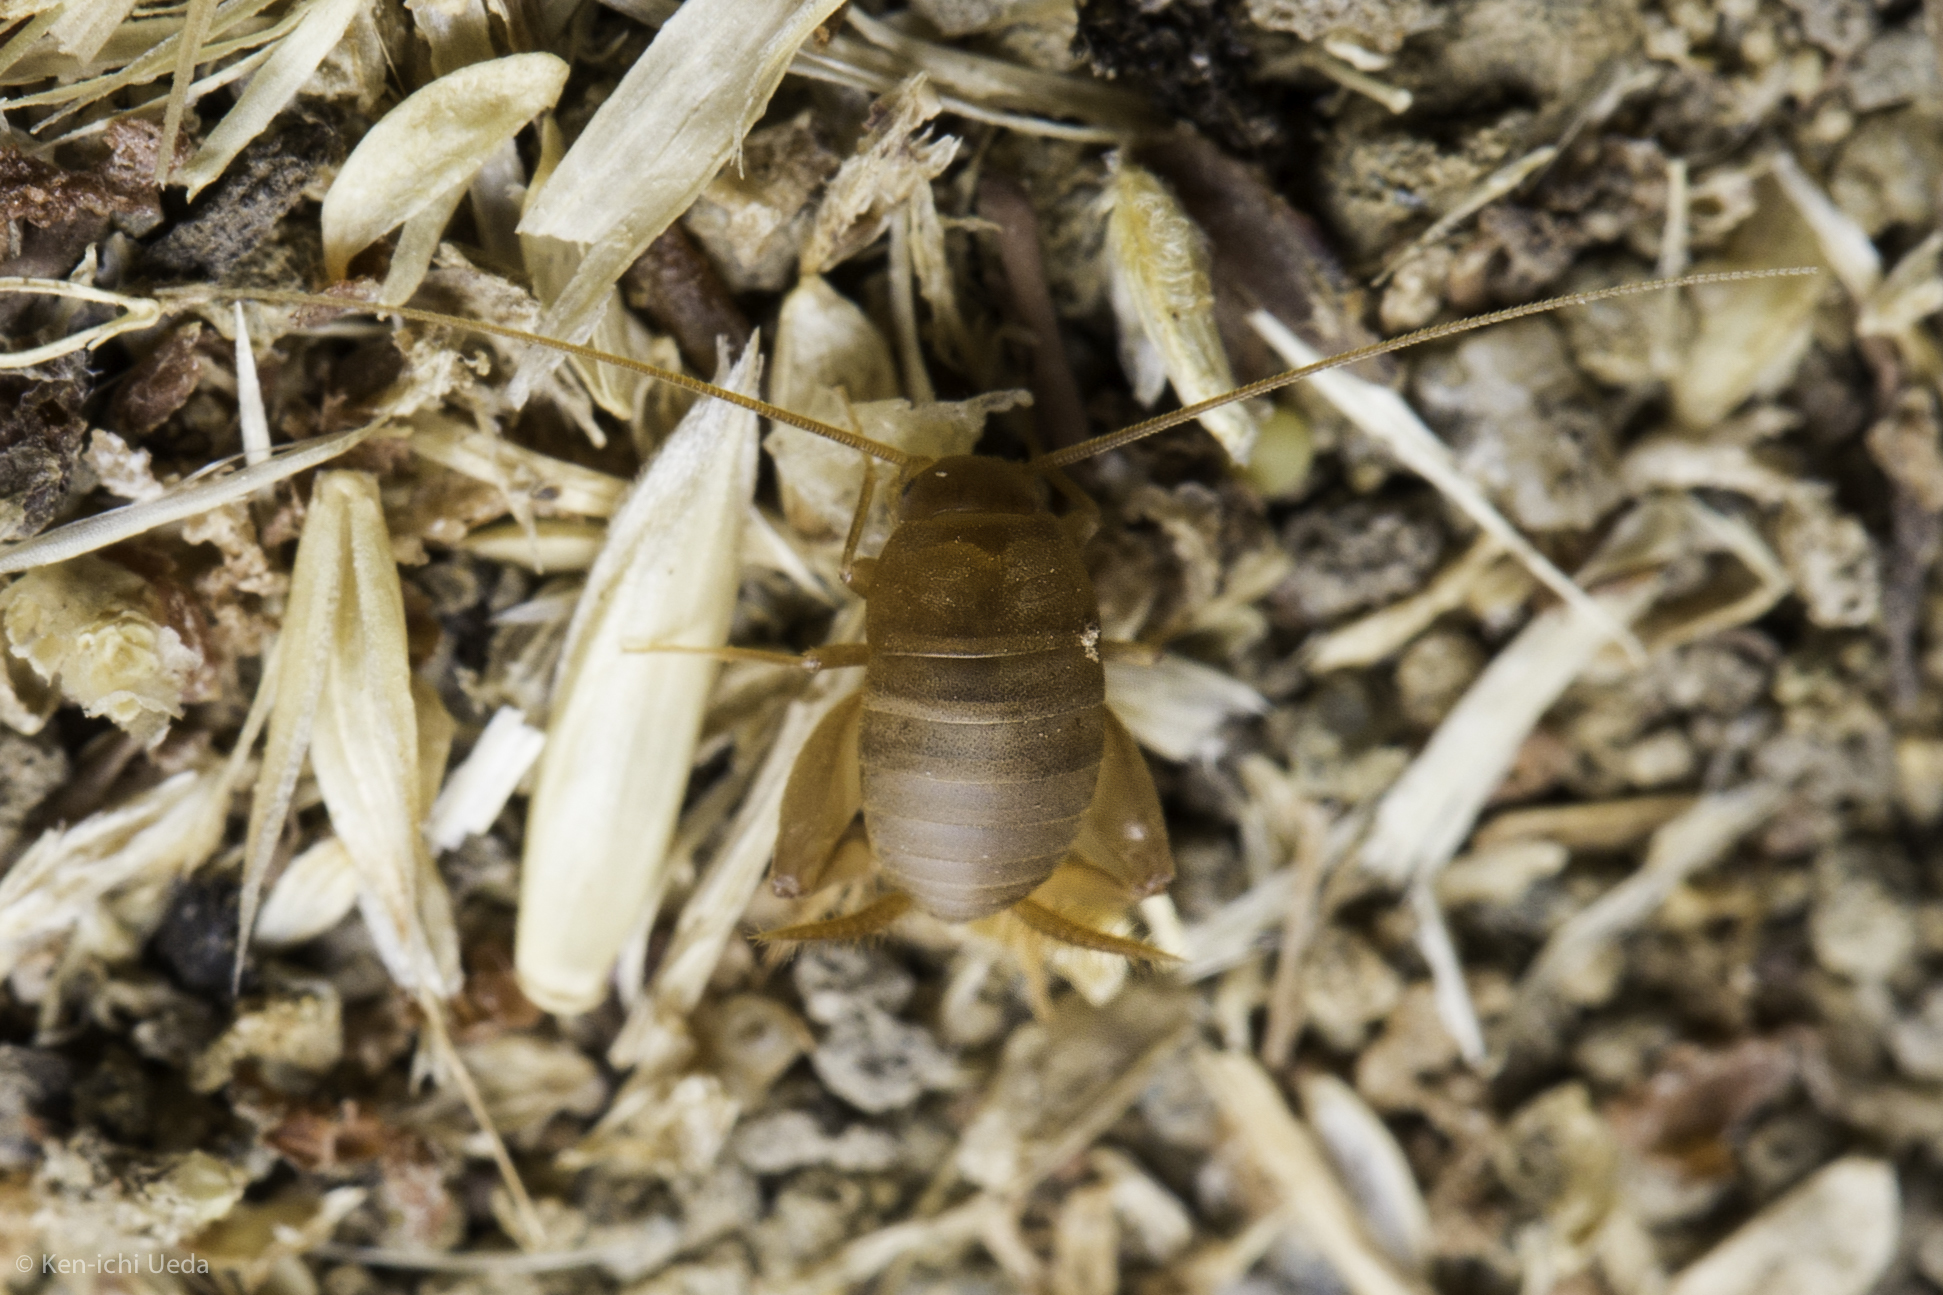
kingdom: Animalia
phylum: Arthropoda
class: Insecta
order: Orthoptera
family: Myrmecophilidae
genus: Myrmecophilus
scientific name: Myrmecophilus oregonensis
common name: Oregon ant cricket
